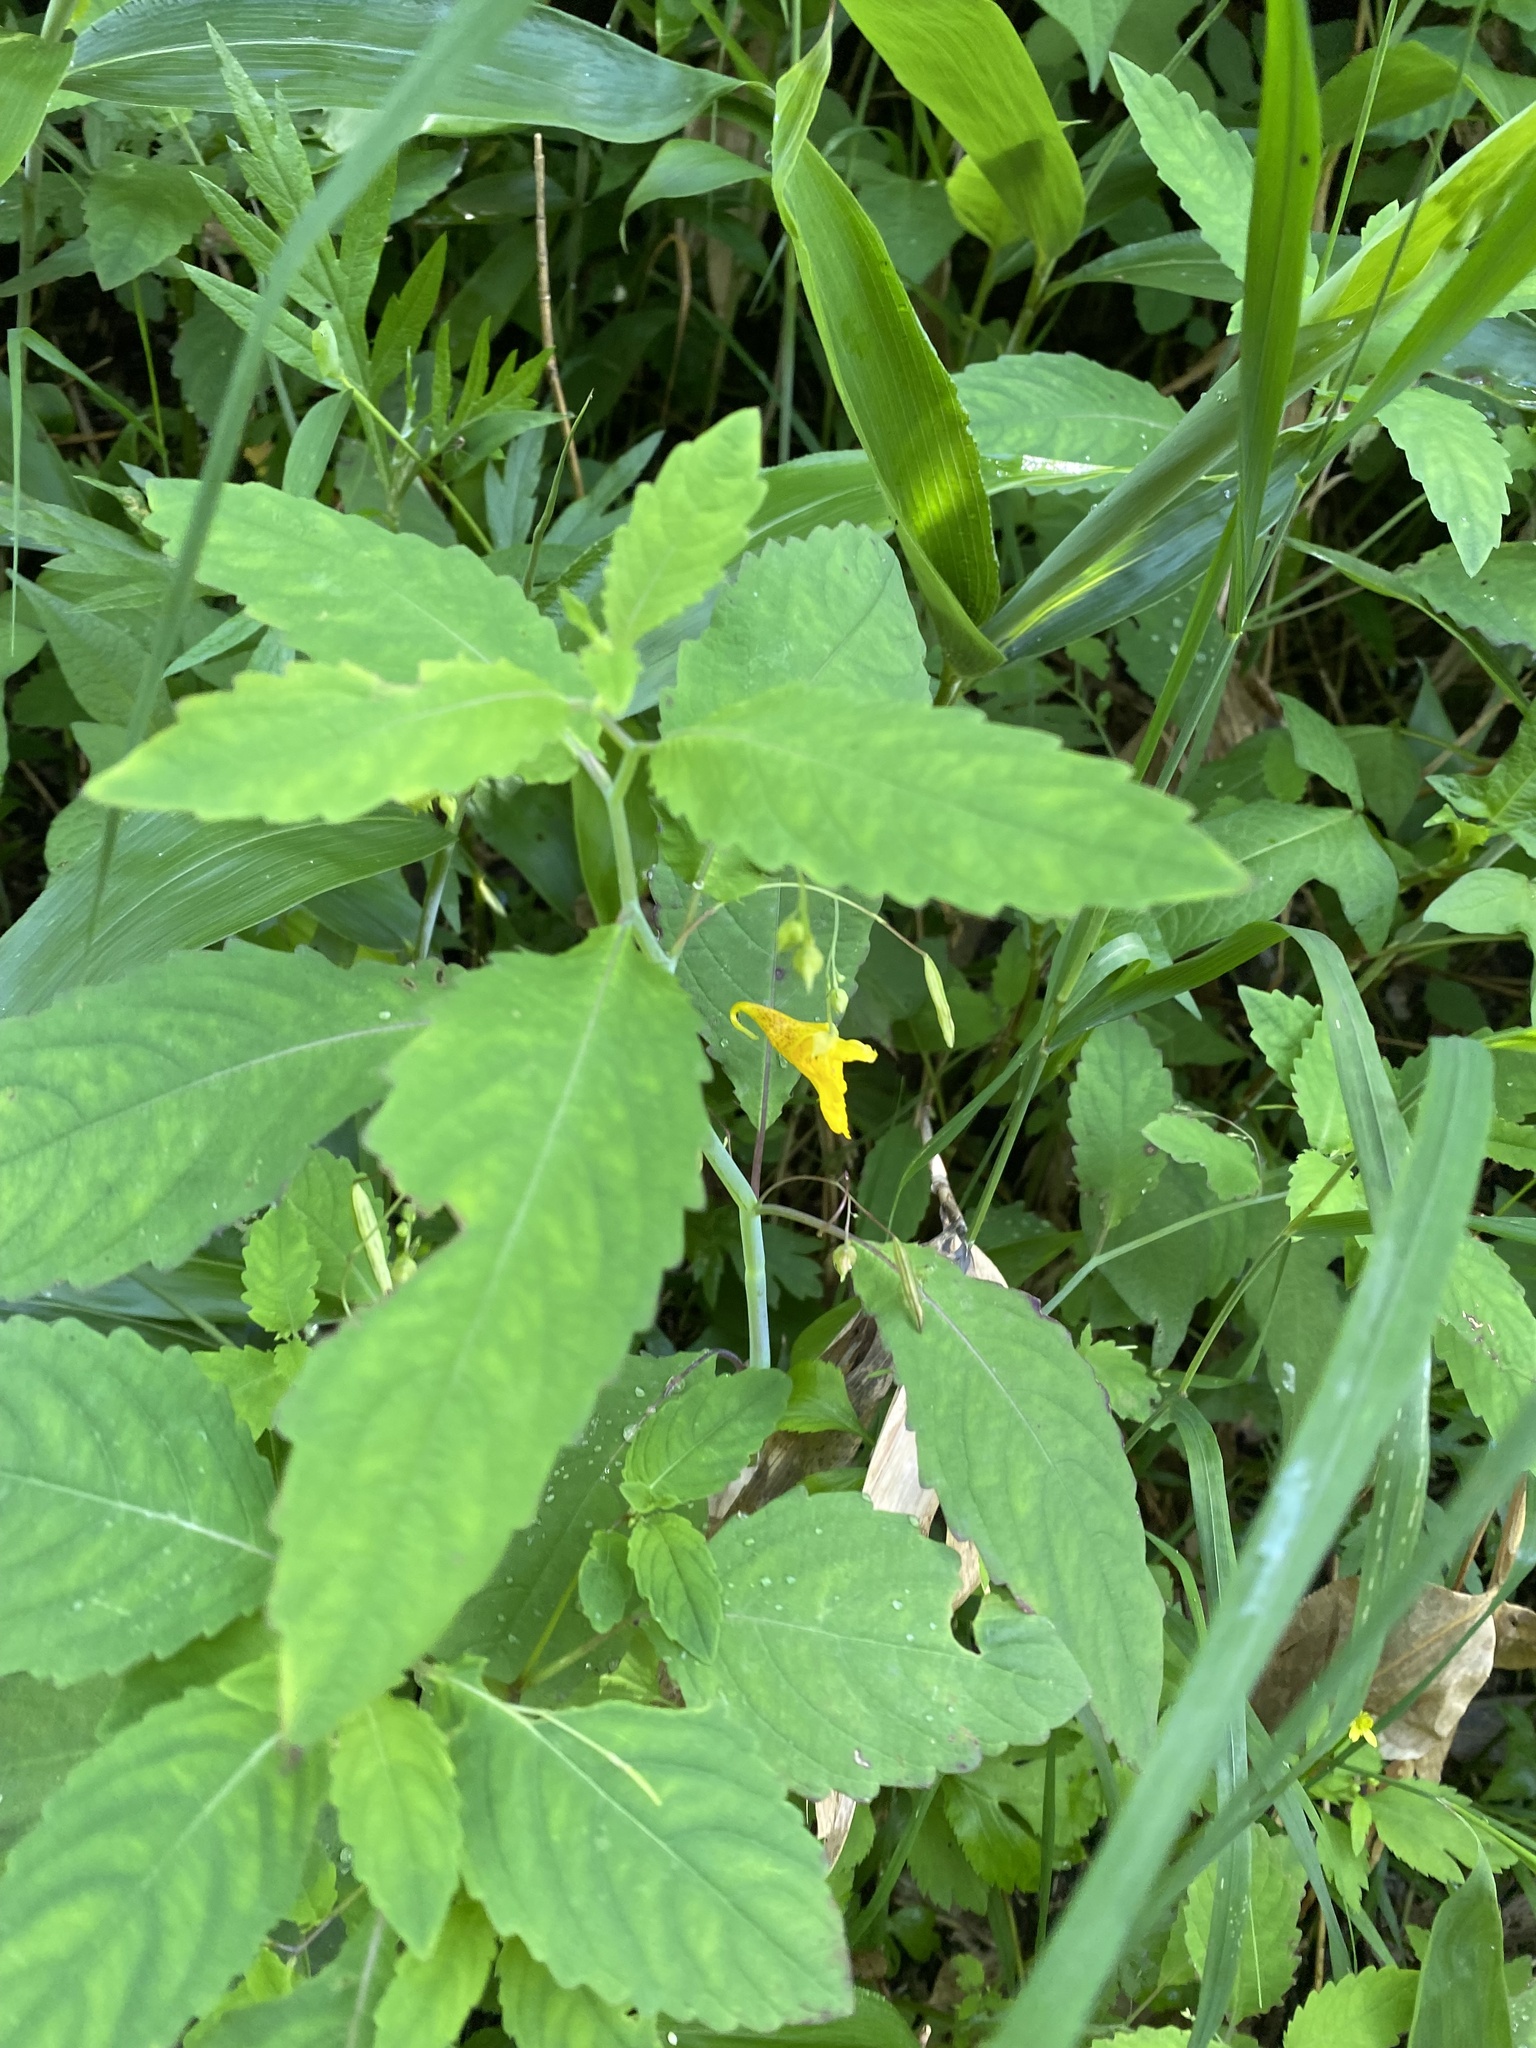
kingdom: Plantae
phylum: Tracheophyta
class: Magnoliopsida
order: Ericales
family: Balsaminaceae
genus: Impatiens
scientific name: Impatiens noli-tangere
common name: Touch-me-not balsam
